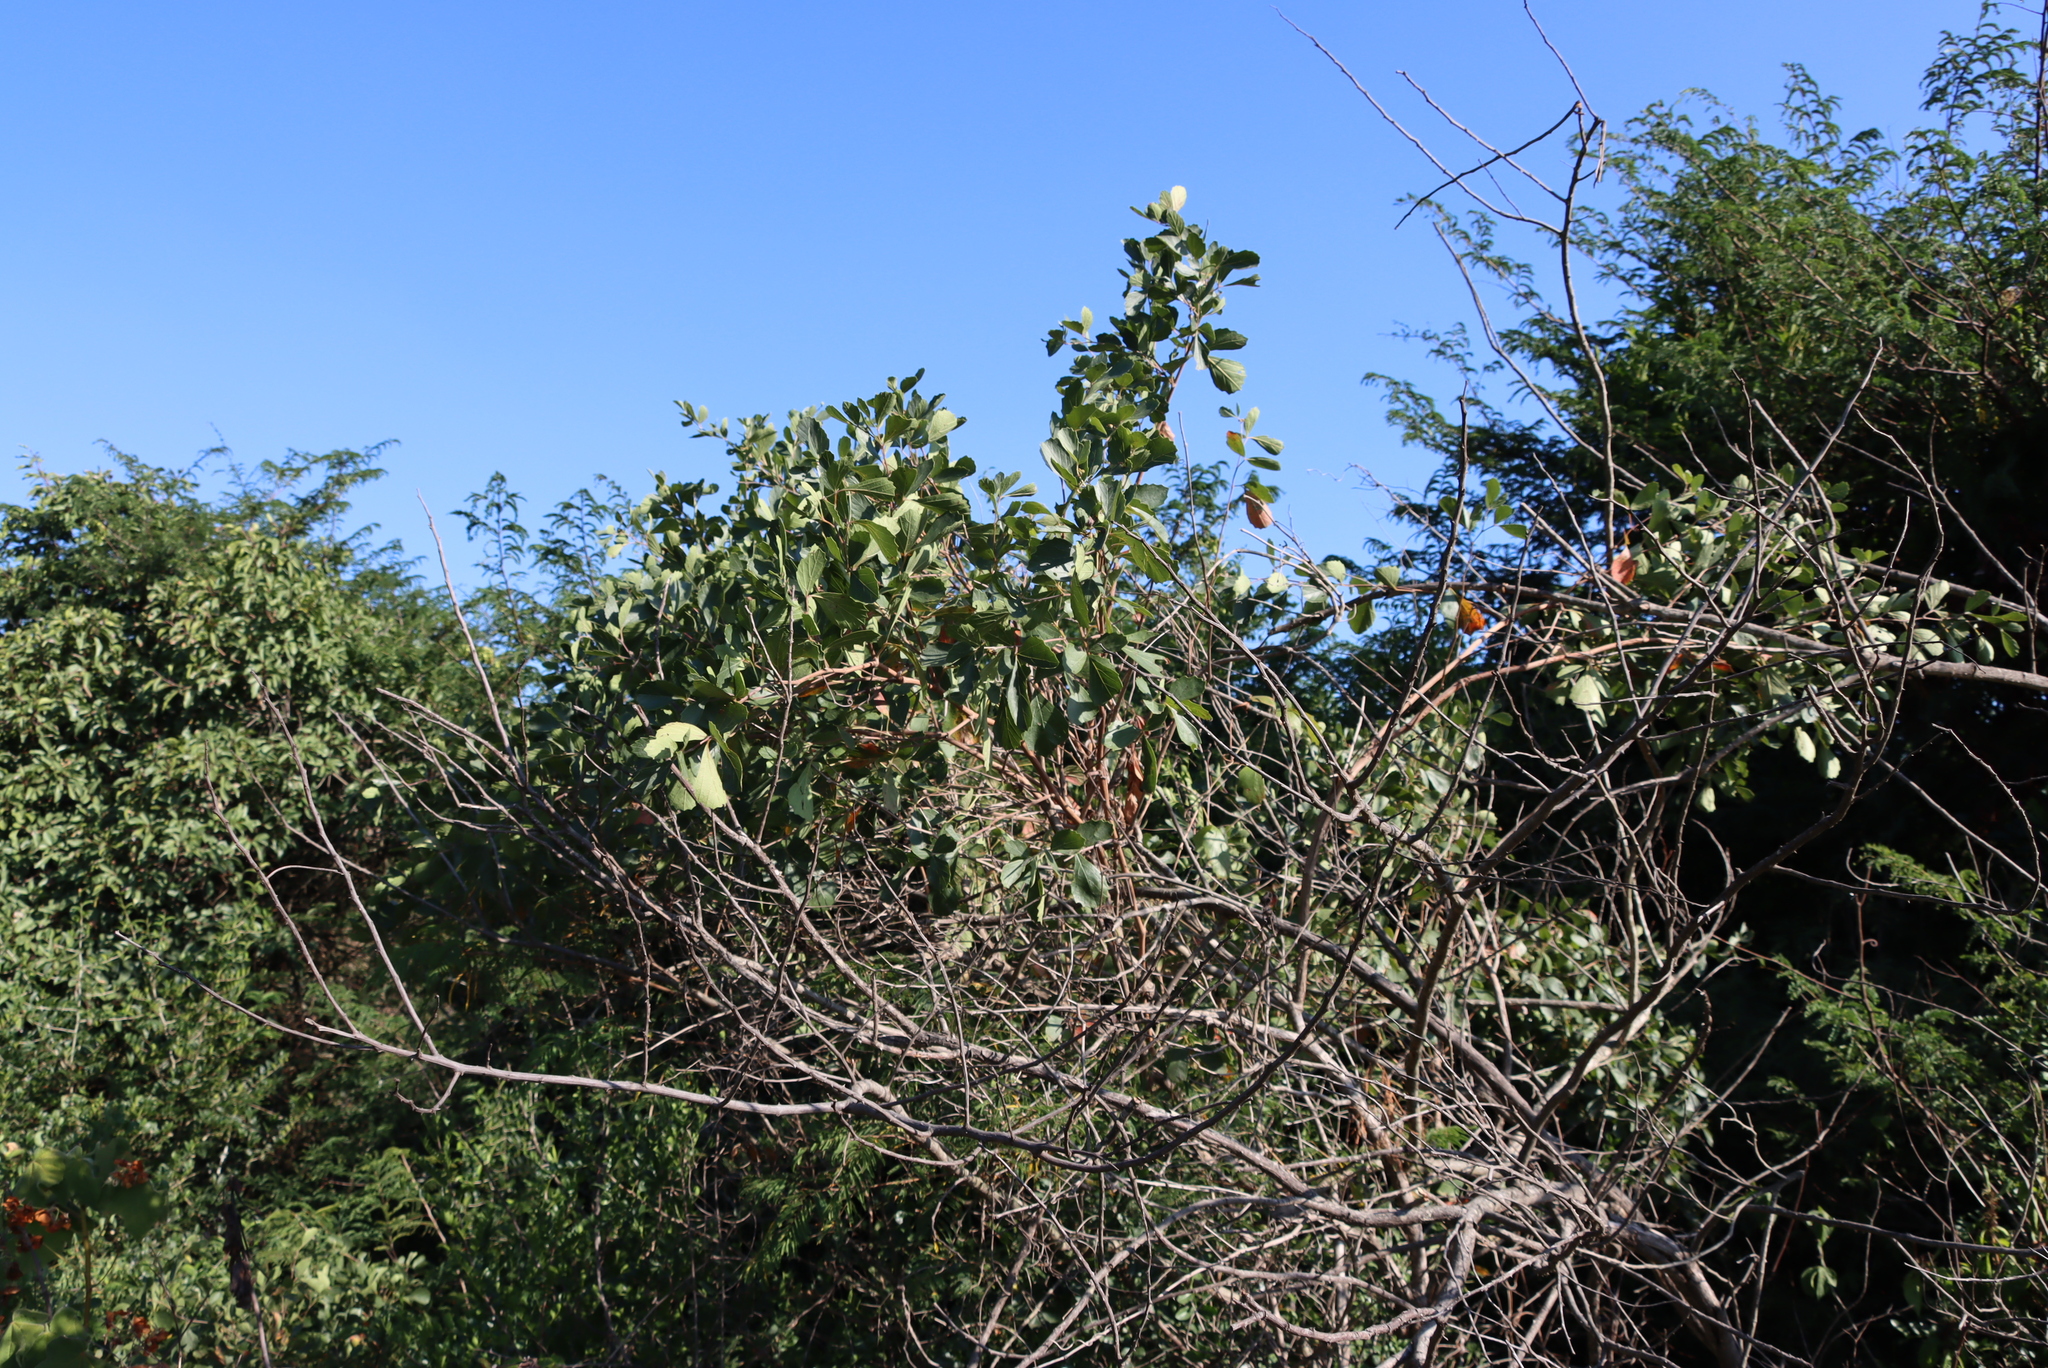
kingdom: Plantae
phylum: Tracheophyta
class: Magnoliopsida
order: Vitales
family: Vitaceae
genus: Rhoicissus
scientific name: Rhoicissus tridentata
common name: Common forest grape
